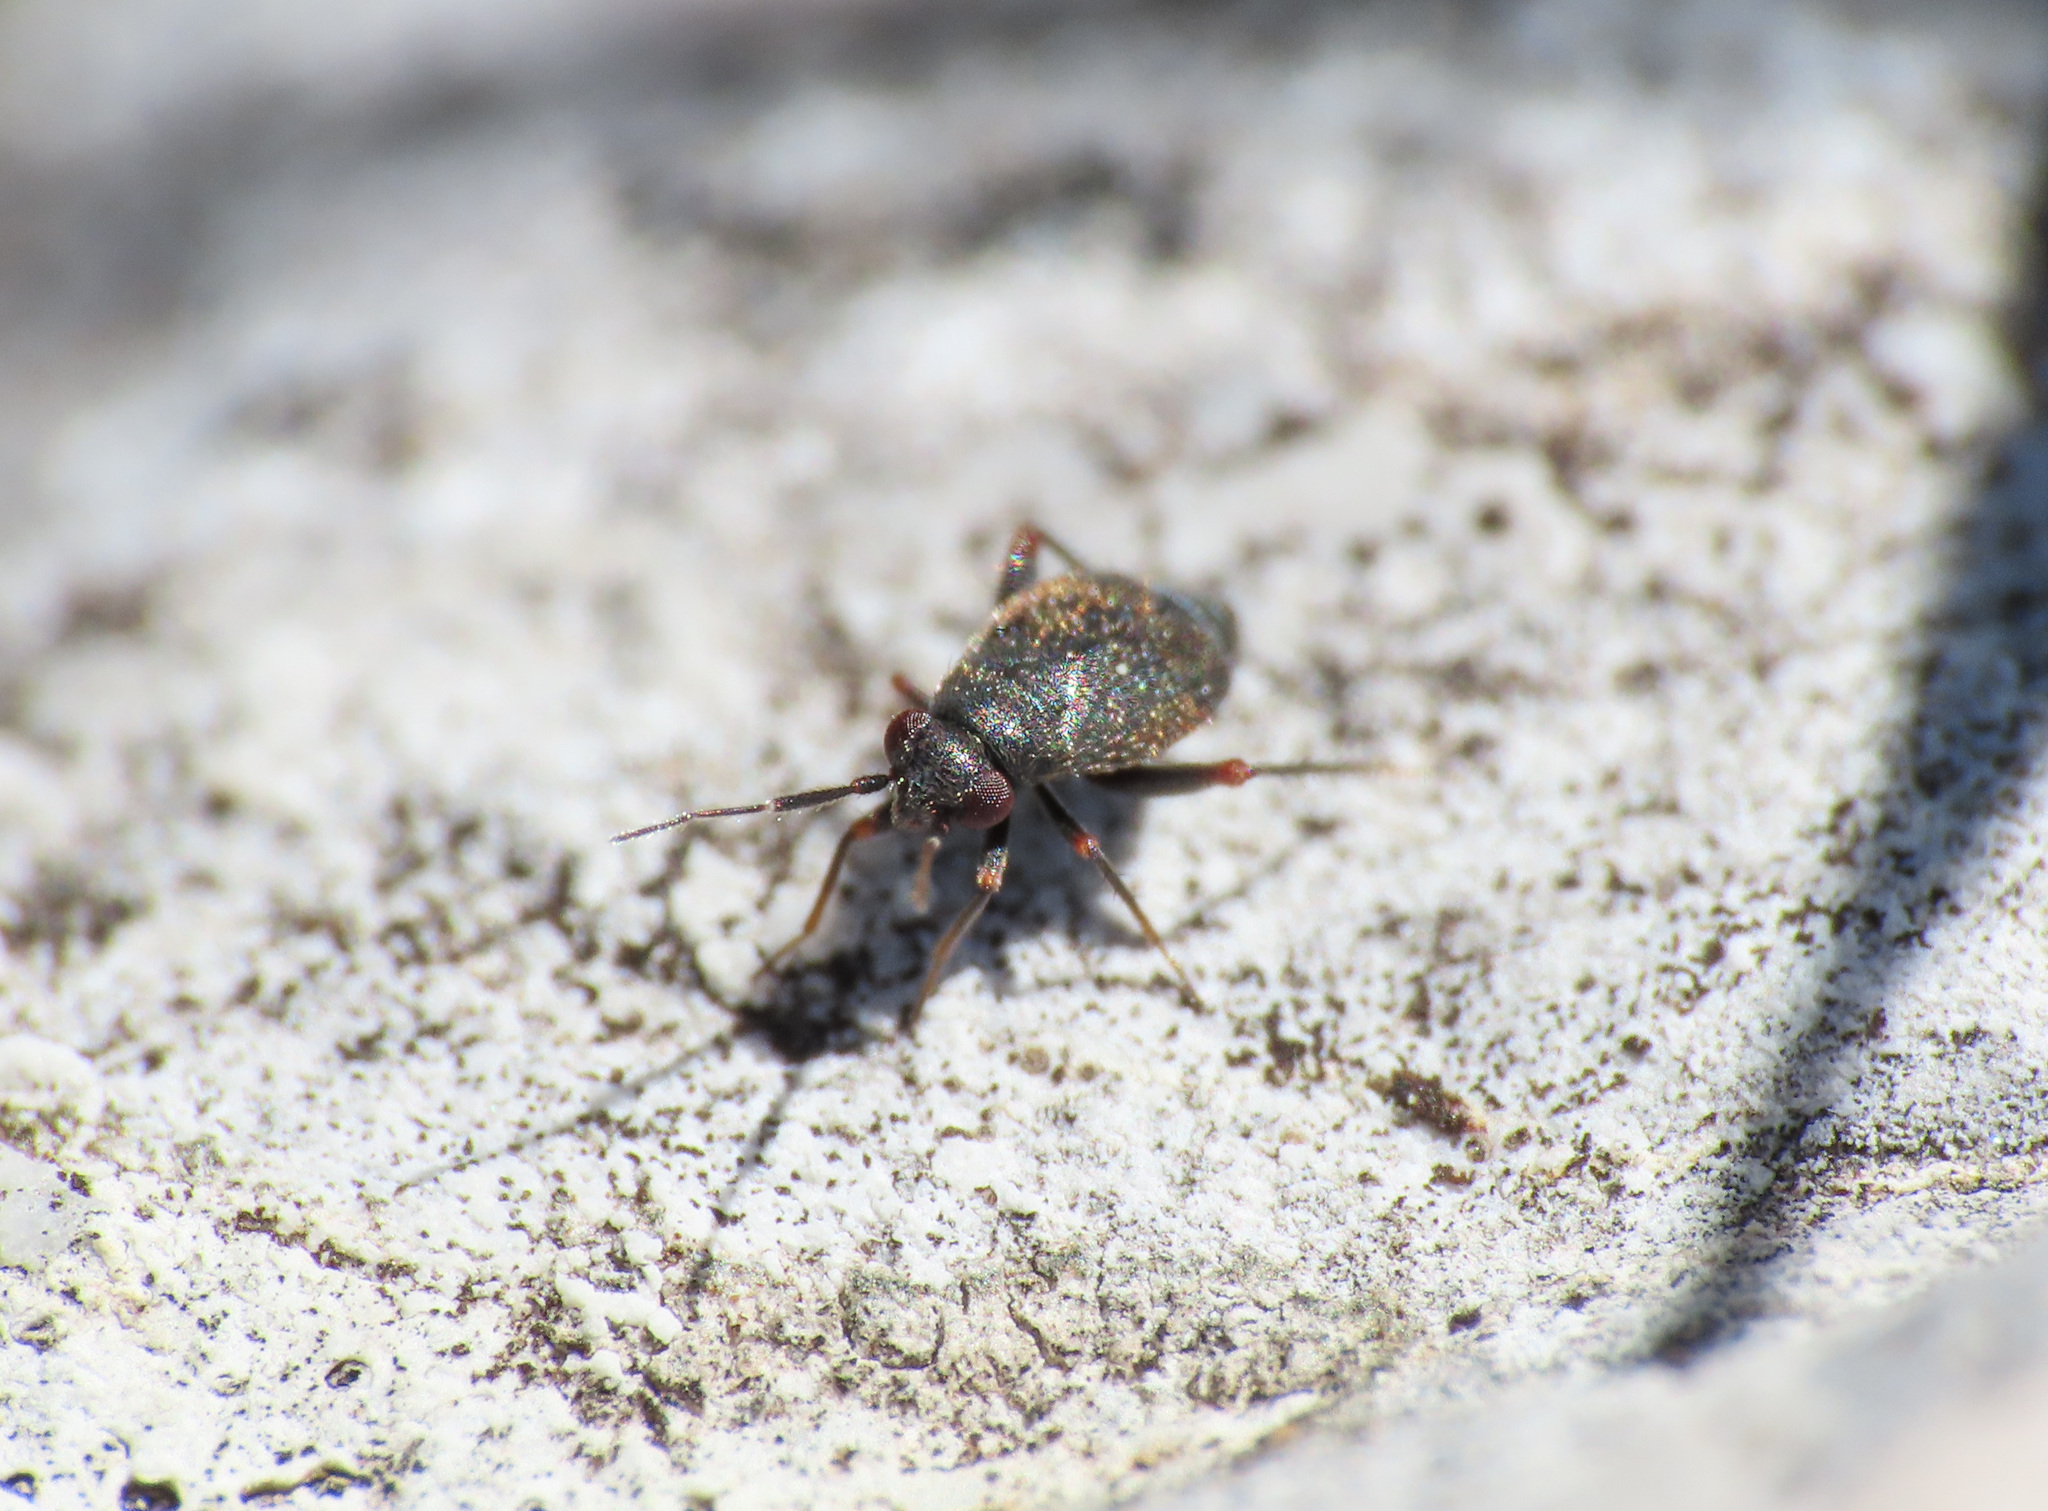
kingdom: Animalia
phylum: Arthropoda
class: Insecta
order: Hemiptera
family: Miridae
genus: Chlamydatus
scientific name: Chlamydatus evanescens
